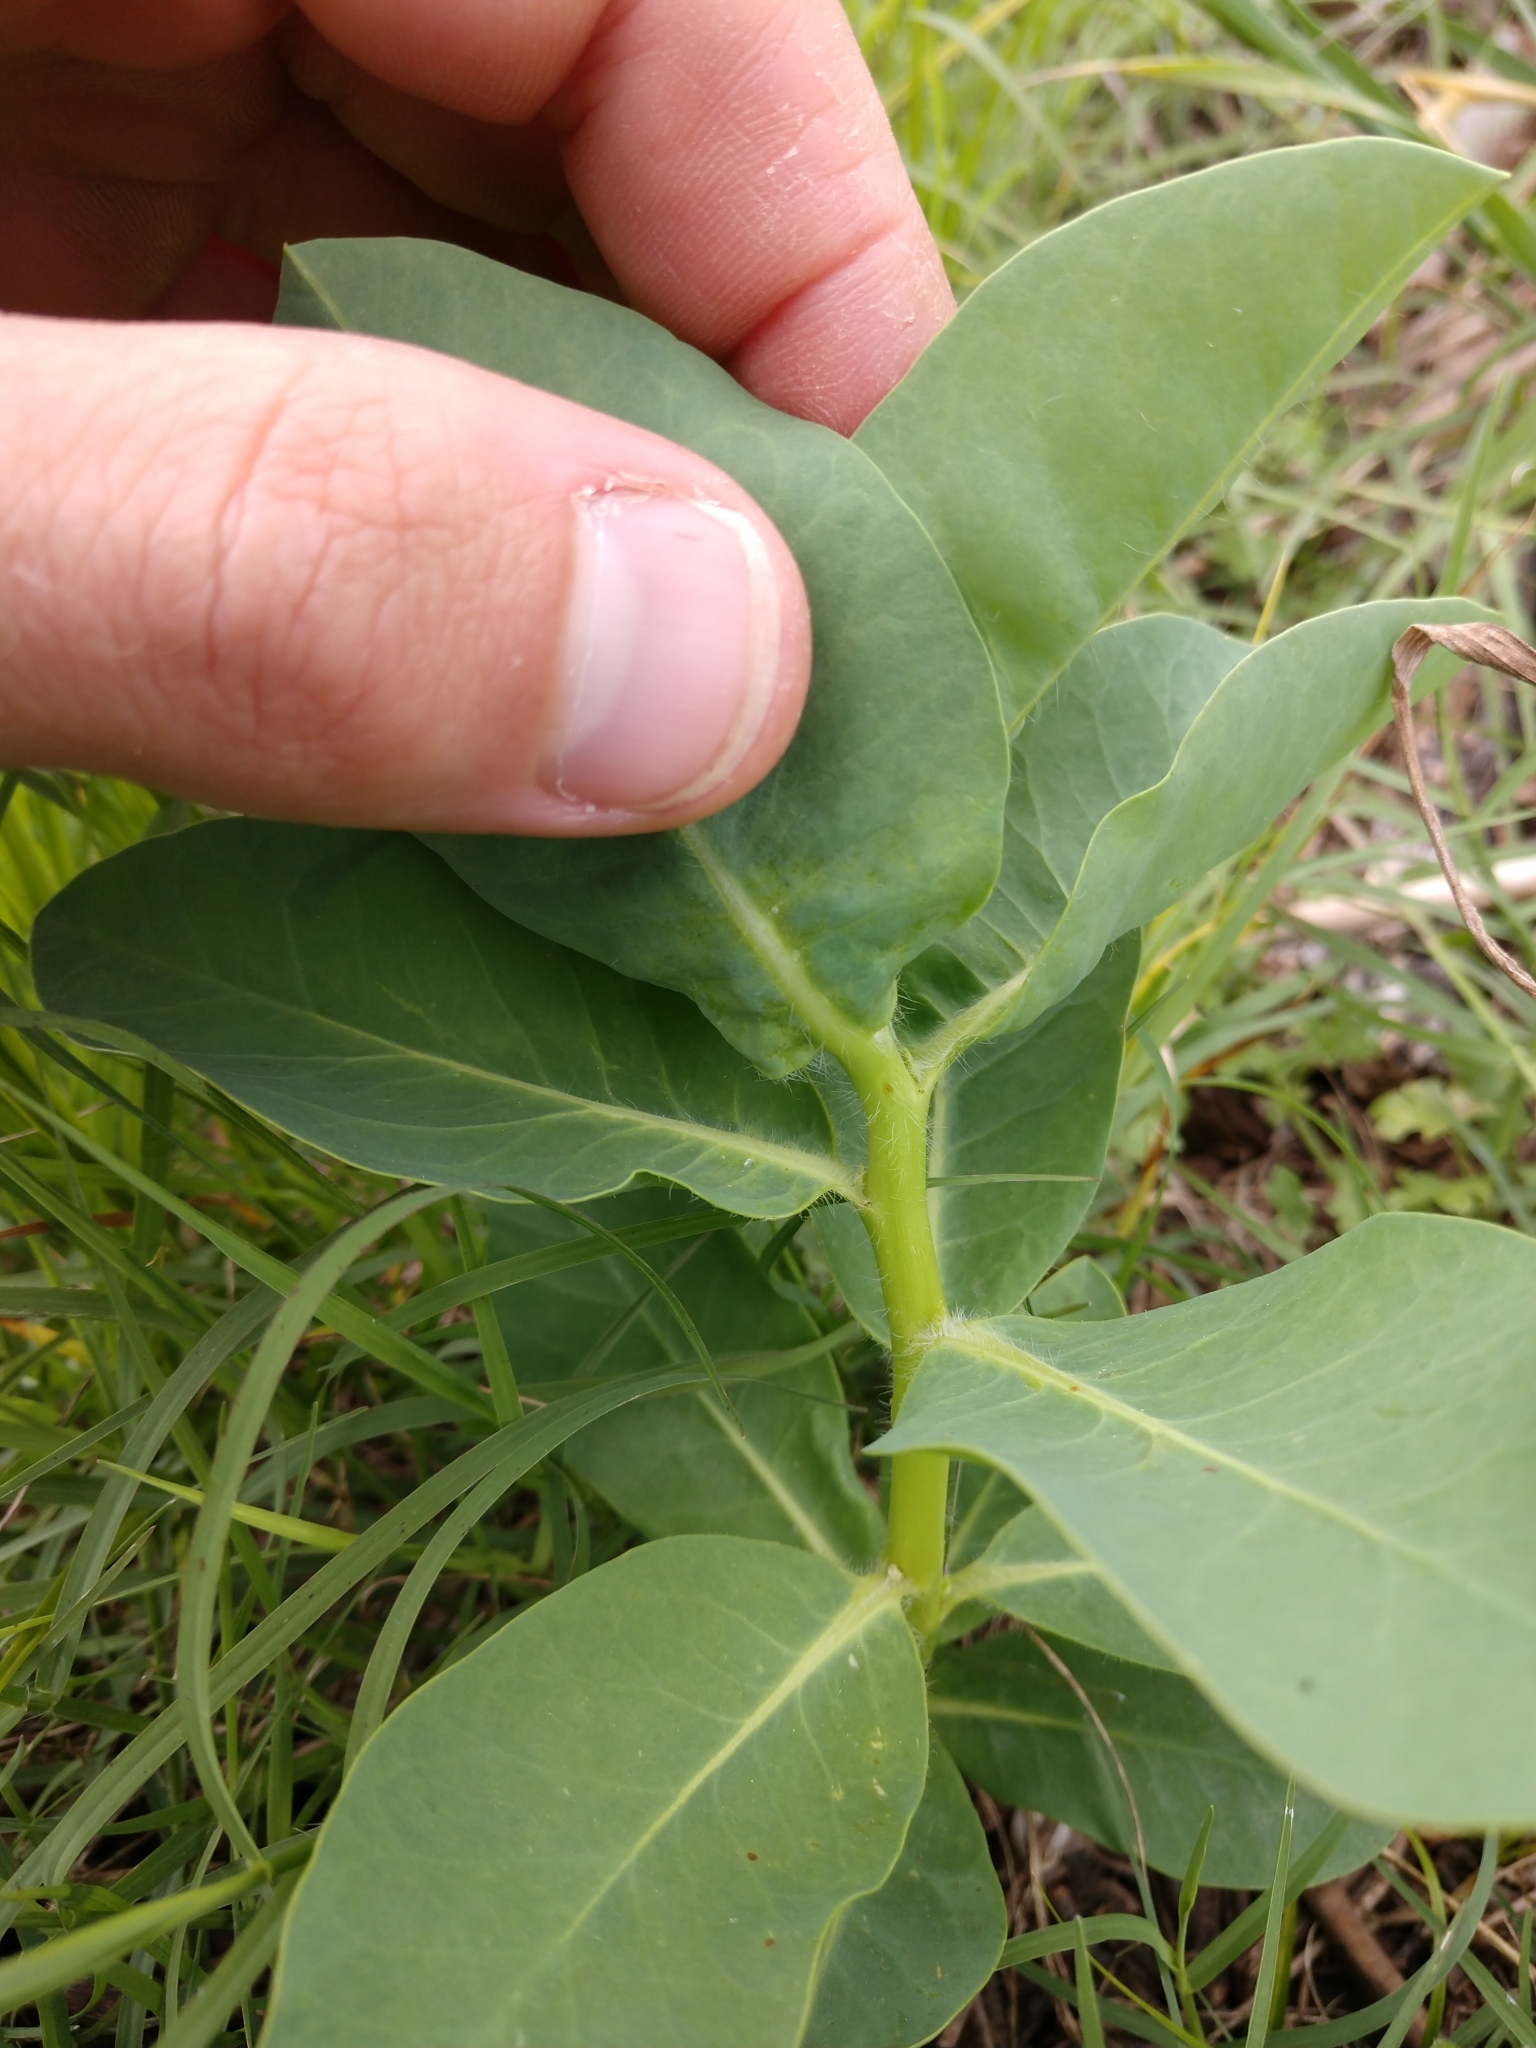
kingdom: Plantae
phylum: Tracheophyta
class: Magnoliopsida
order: Malpighiales
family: Euphorbiaceae
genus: Euphorbia
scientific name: Euphorbia marginata
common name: Ghostweed
